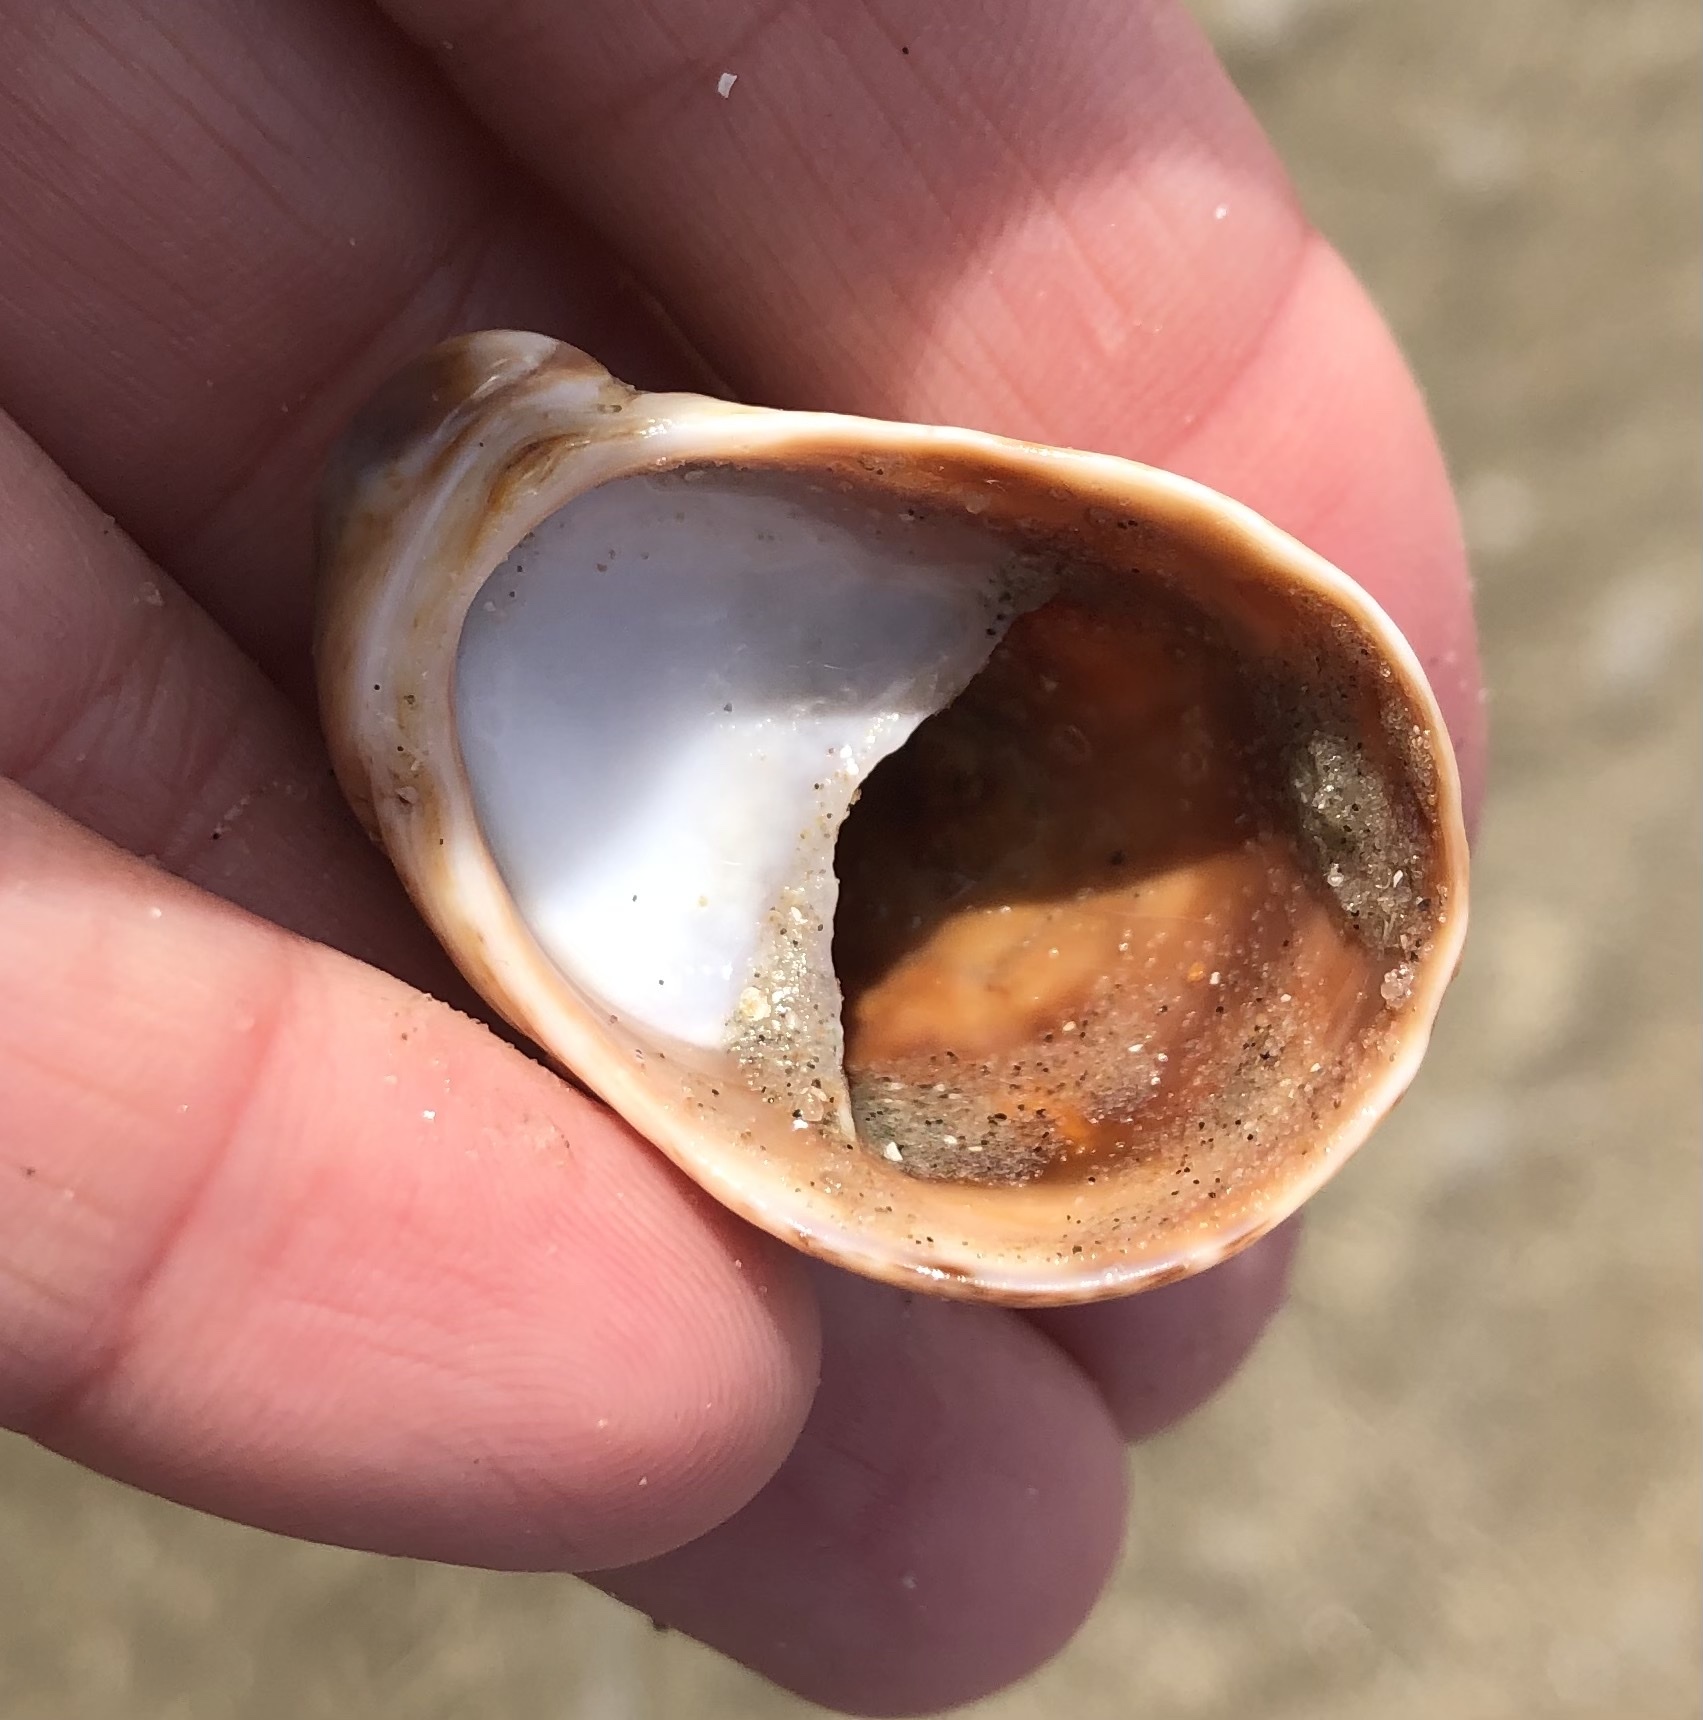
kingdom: Animalia
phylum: Mollusca
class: Gastropoda
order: Littorinimorpha
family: Calyptraeidae
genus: Crepidula
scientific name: Crepidula fornicata
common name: Slipper limpet
